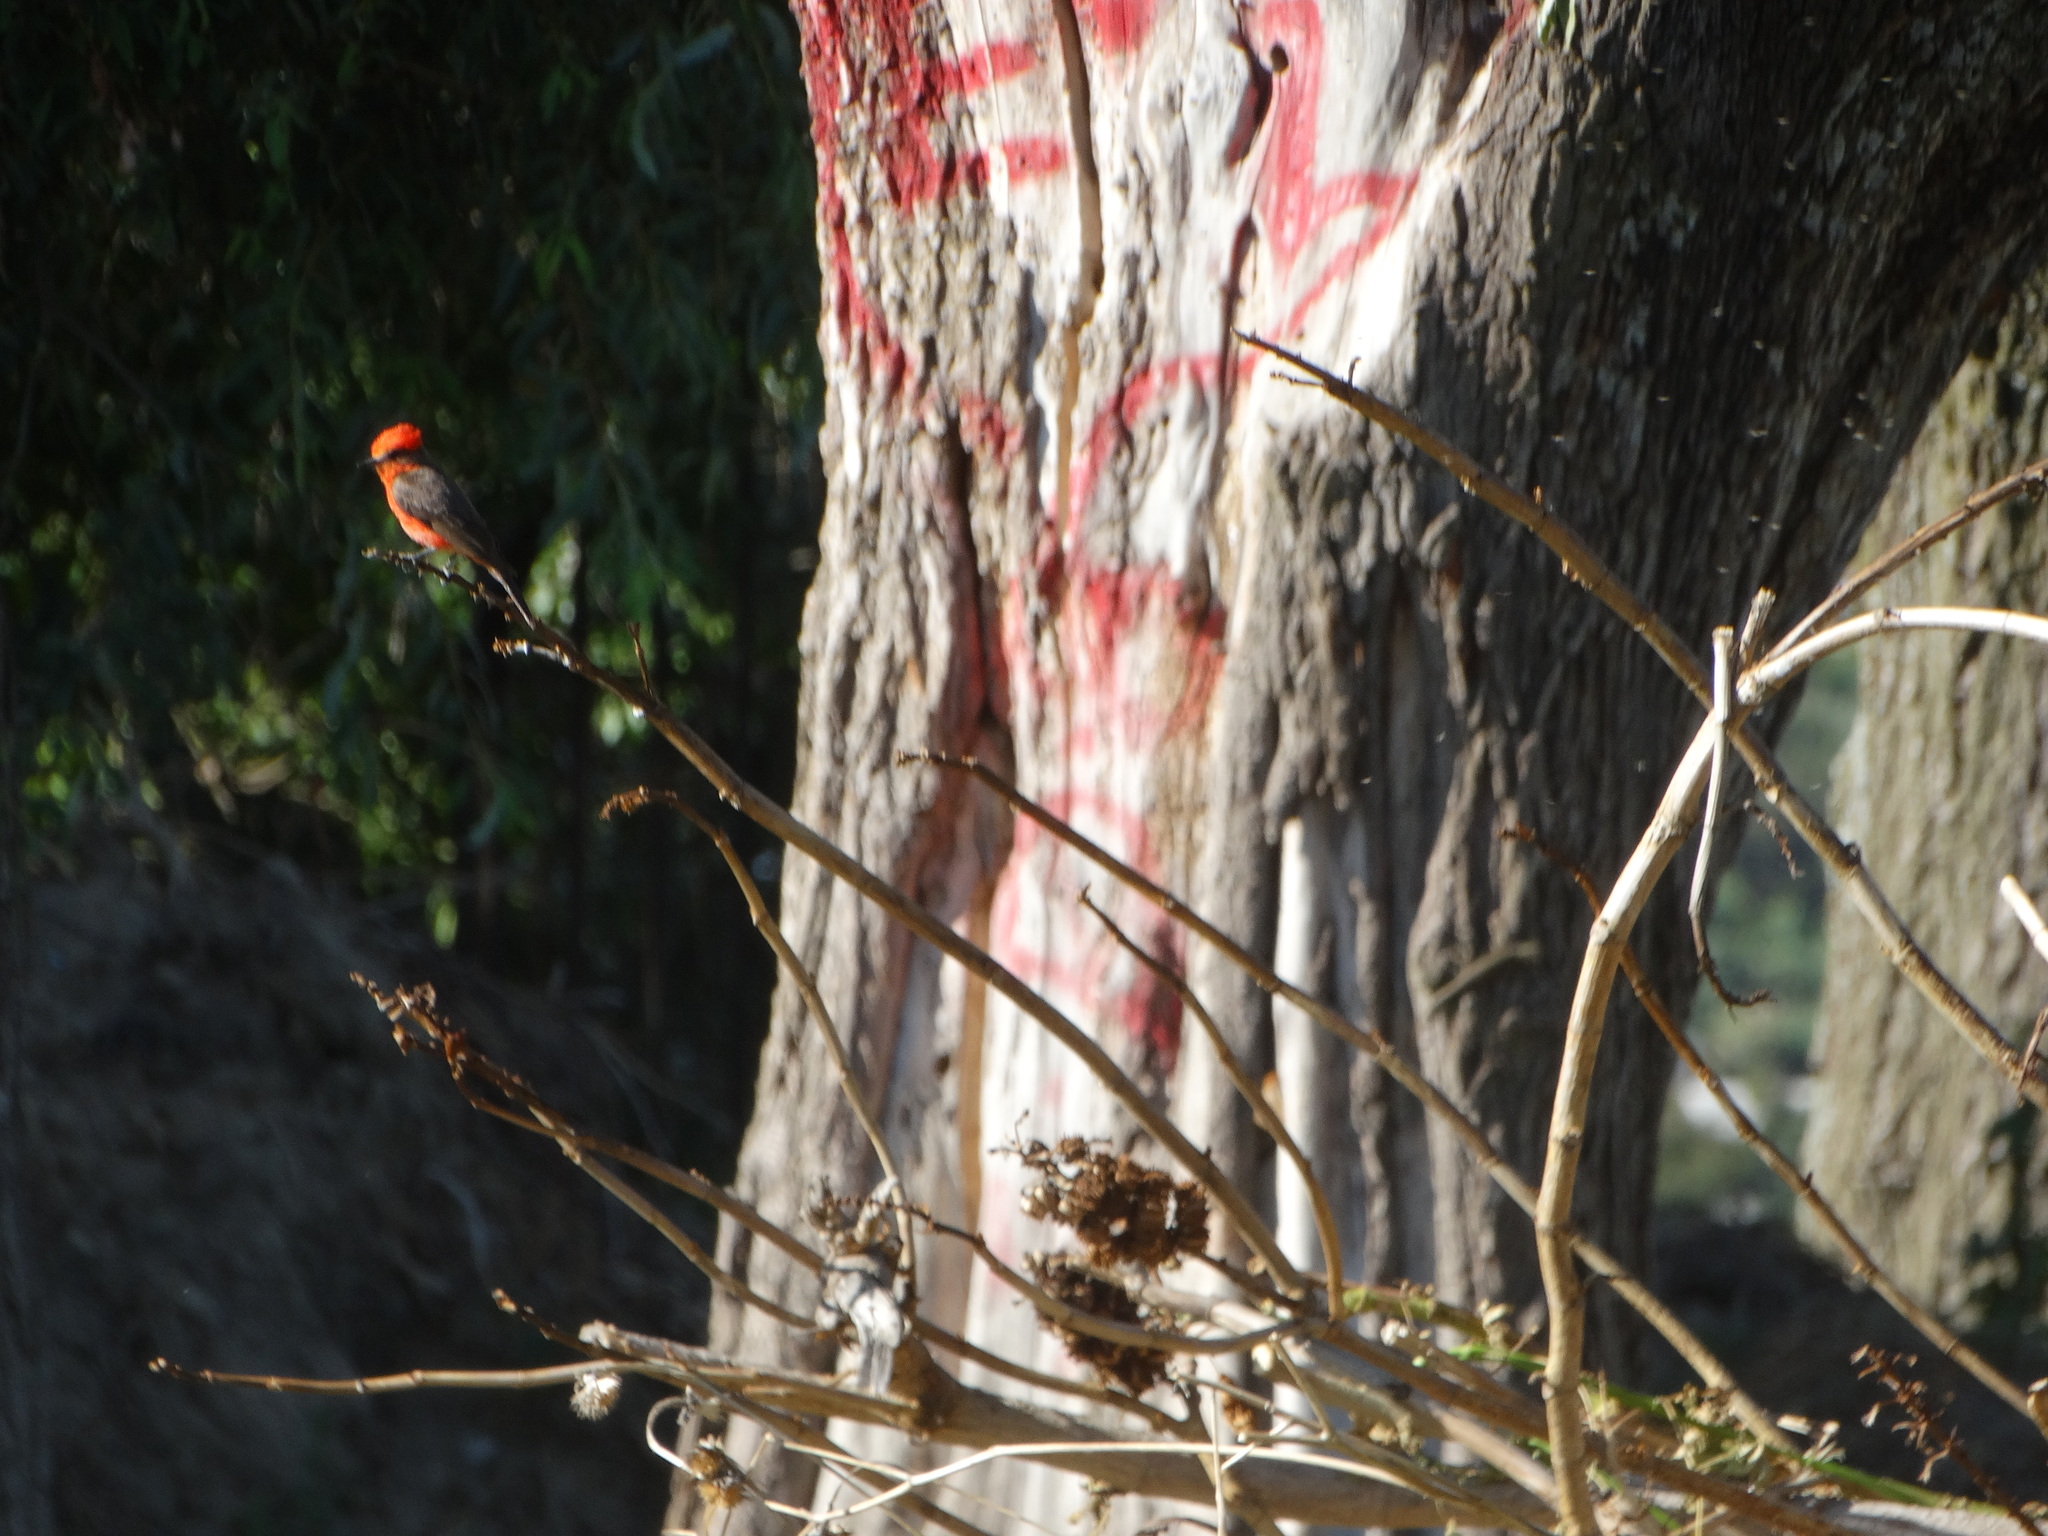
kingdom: Animalia
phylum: Chordata
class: Aves
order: Passeriformes
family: Tyrannidae
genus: Pyrocephalus
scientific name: Pyrocephalus rubinus
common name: Vermilion flycatcher
